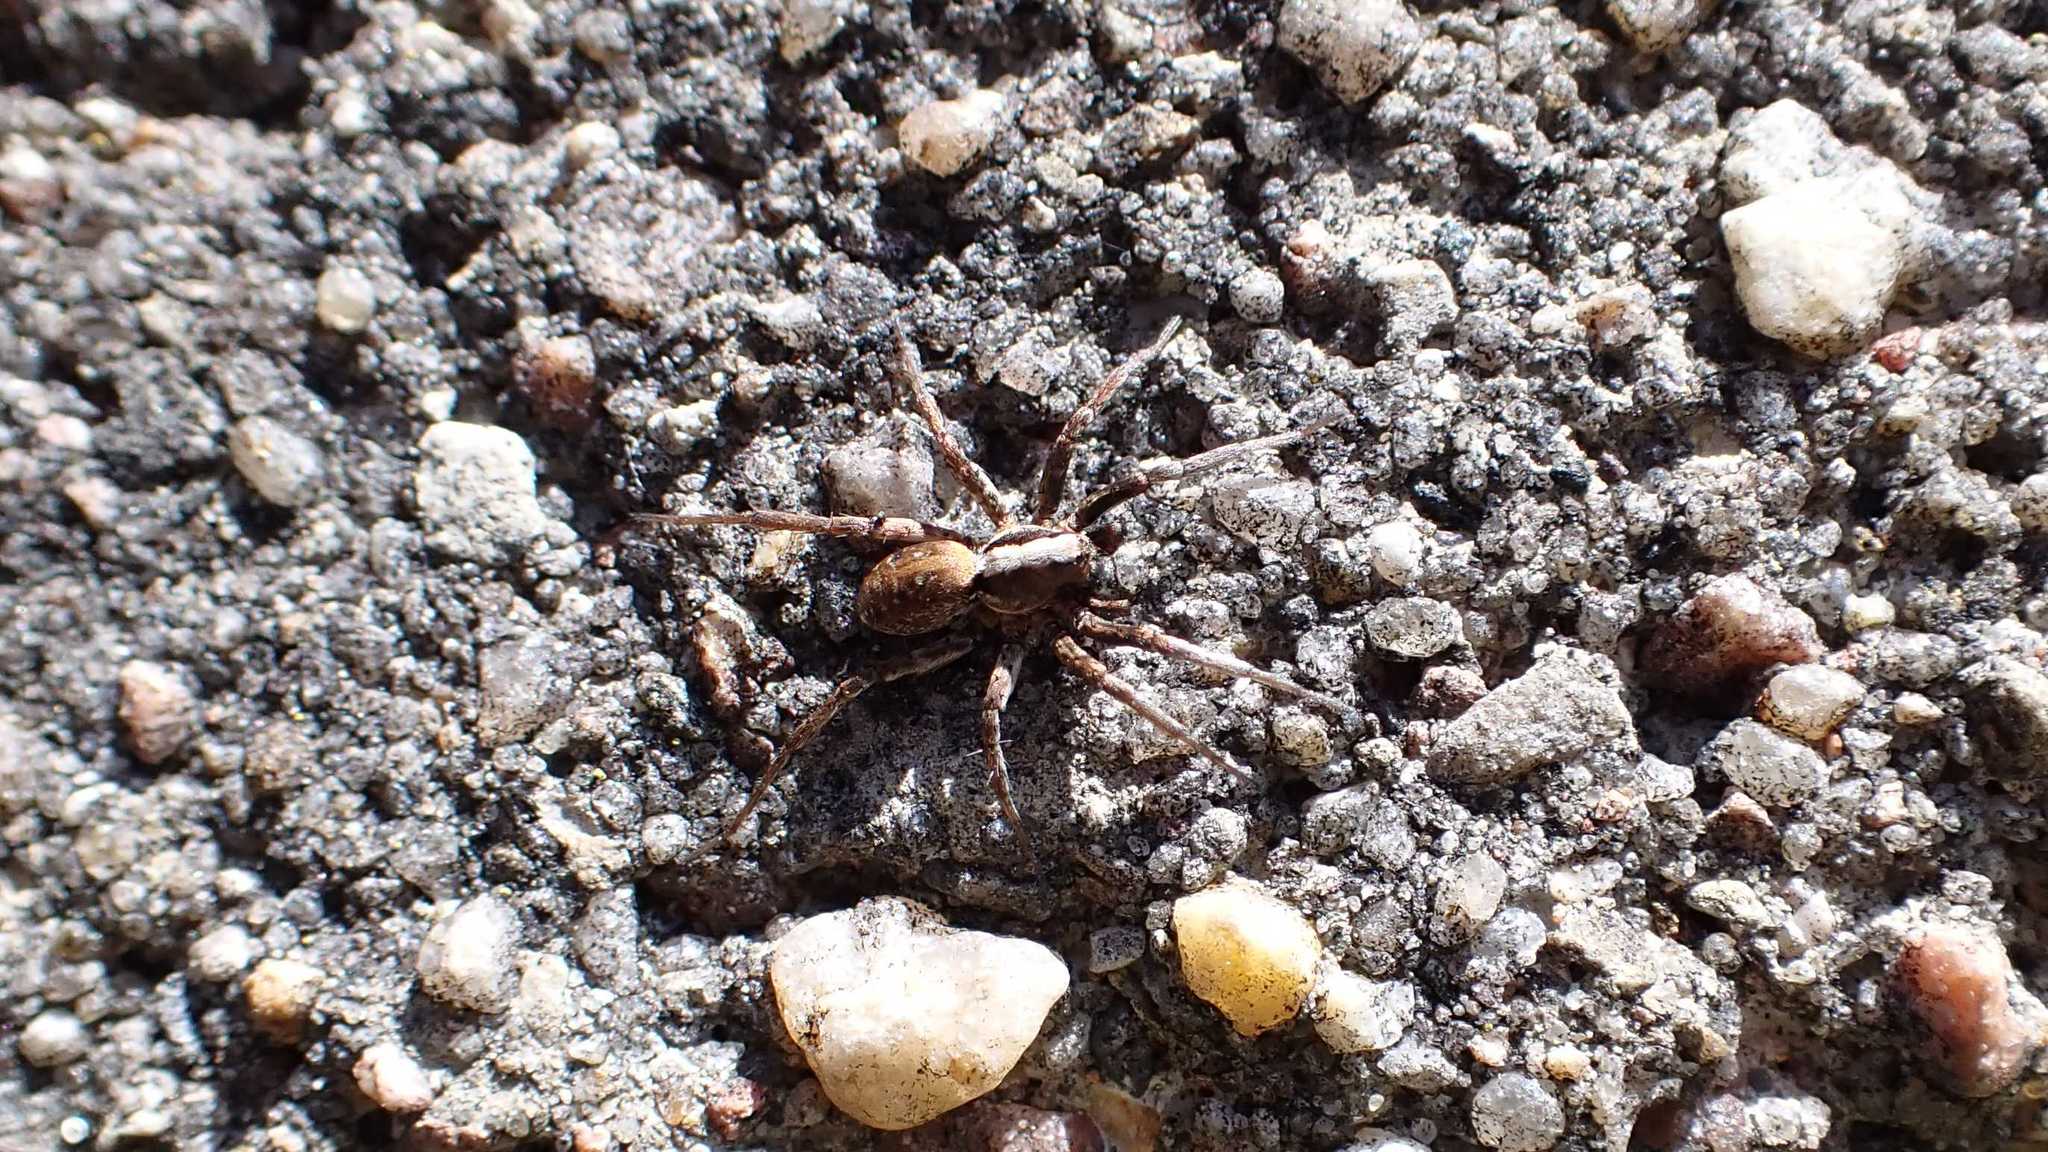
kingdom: Animalia
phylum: Arthropoda
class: Arachnida
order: Araneae
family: Lycosidae
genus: Xerolycosa
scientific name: Xerolycosa miniata
